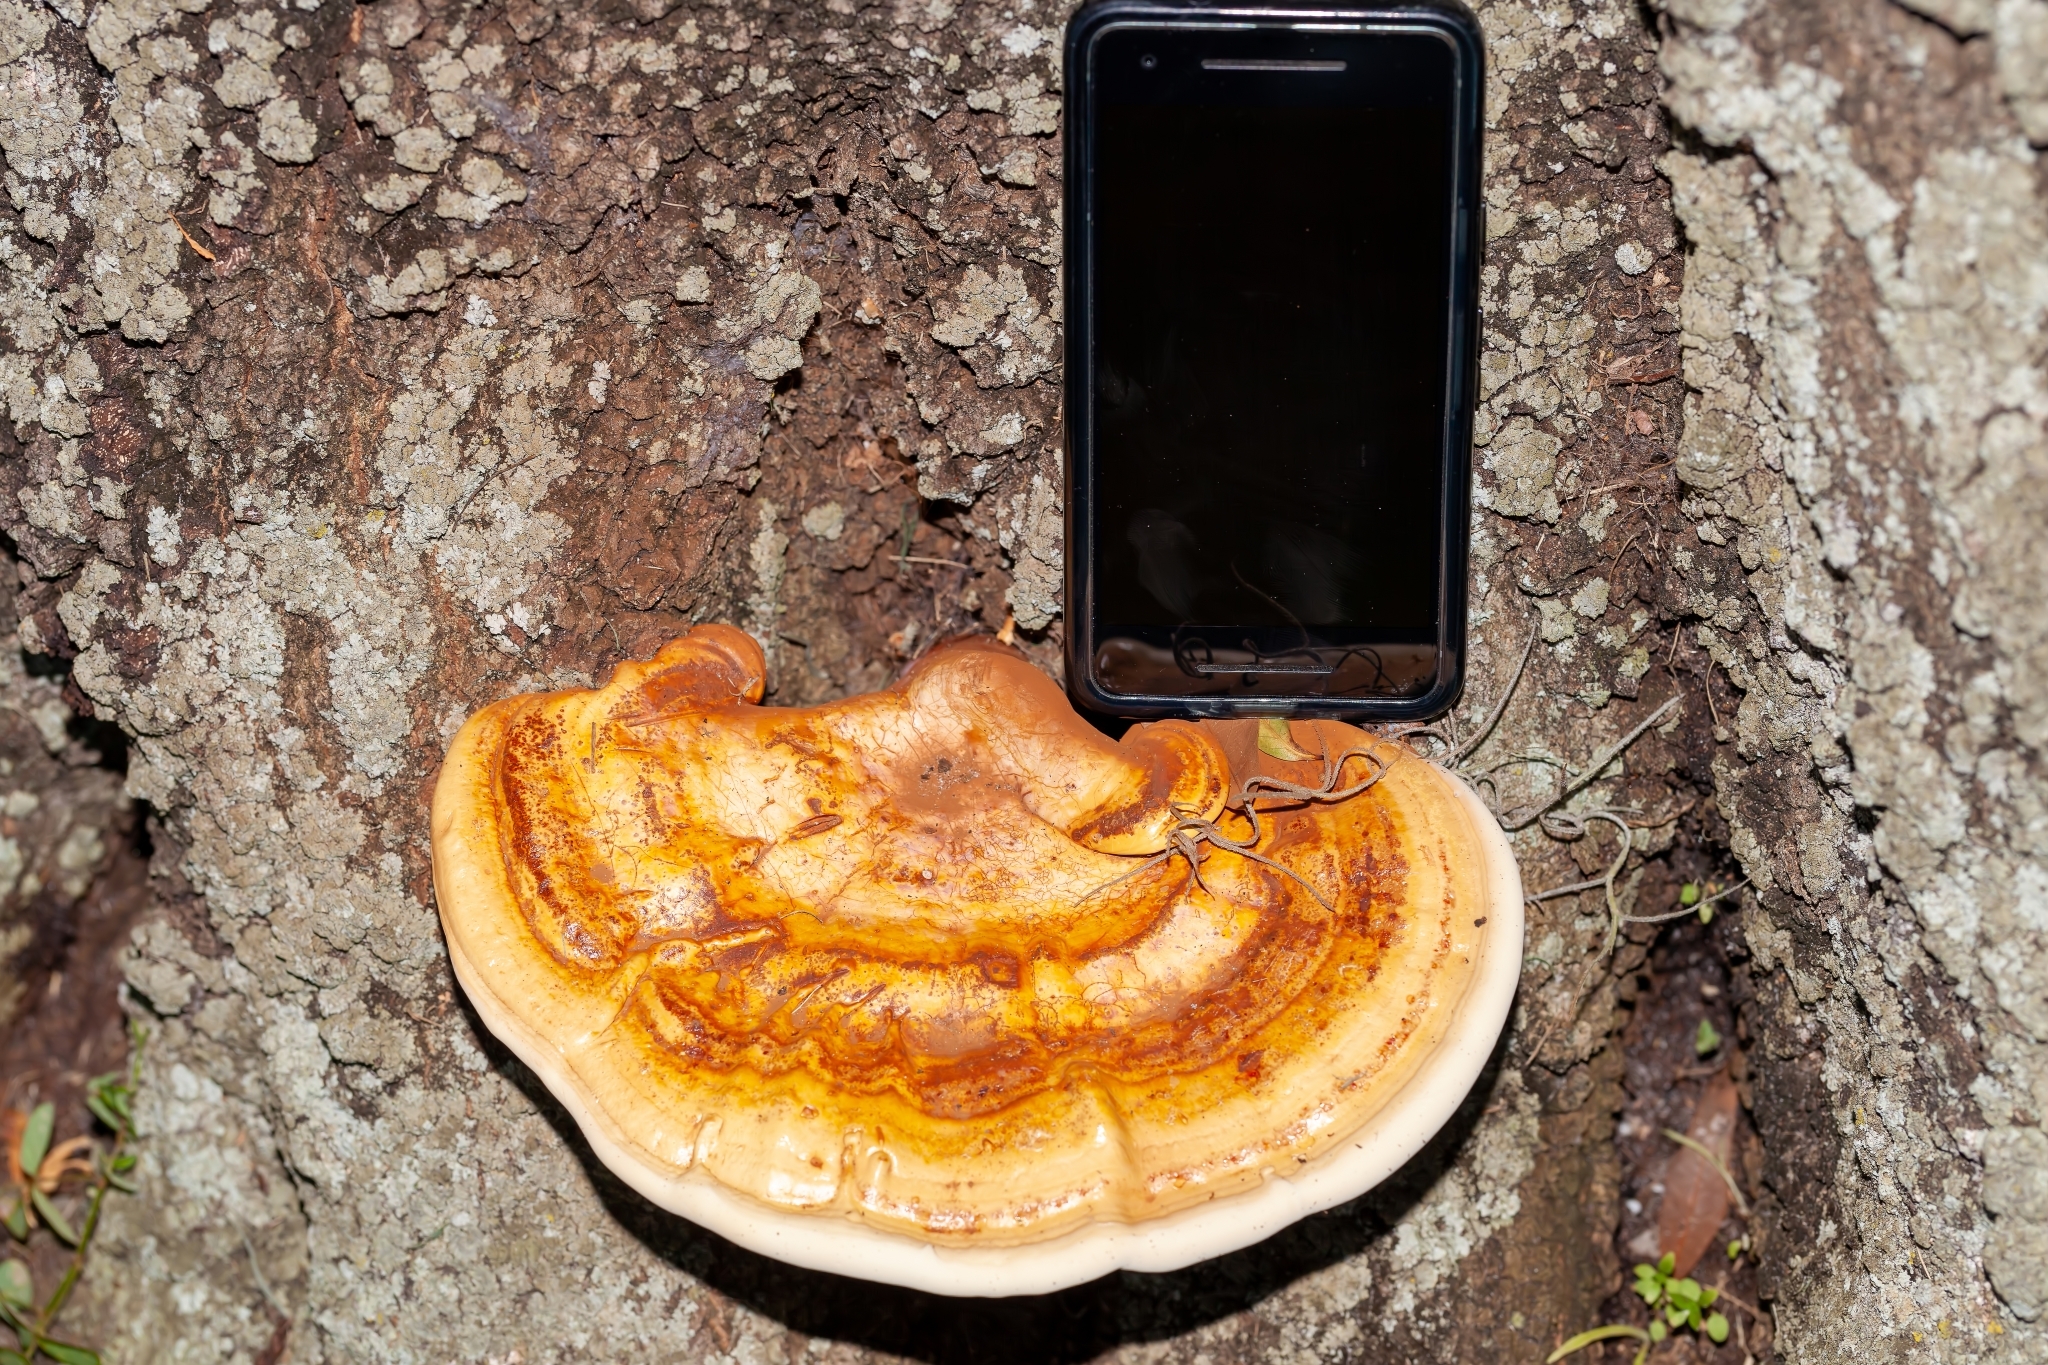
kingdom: Fungi
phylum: Basidiomycota
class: Agaricomycetes
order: Polyporales
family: Polyporaceae
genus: Ganoderma
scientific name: Ganoderma curtisii
